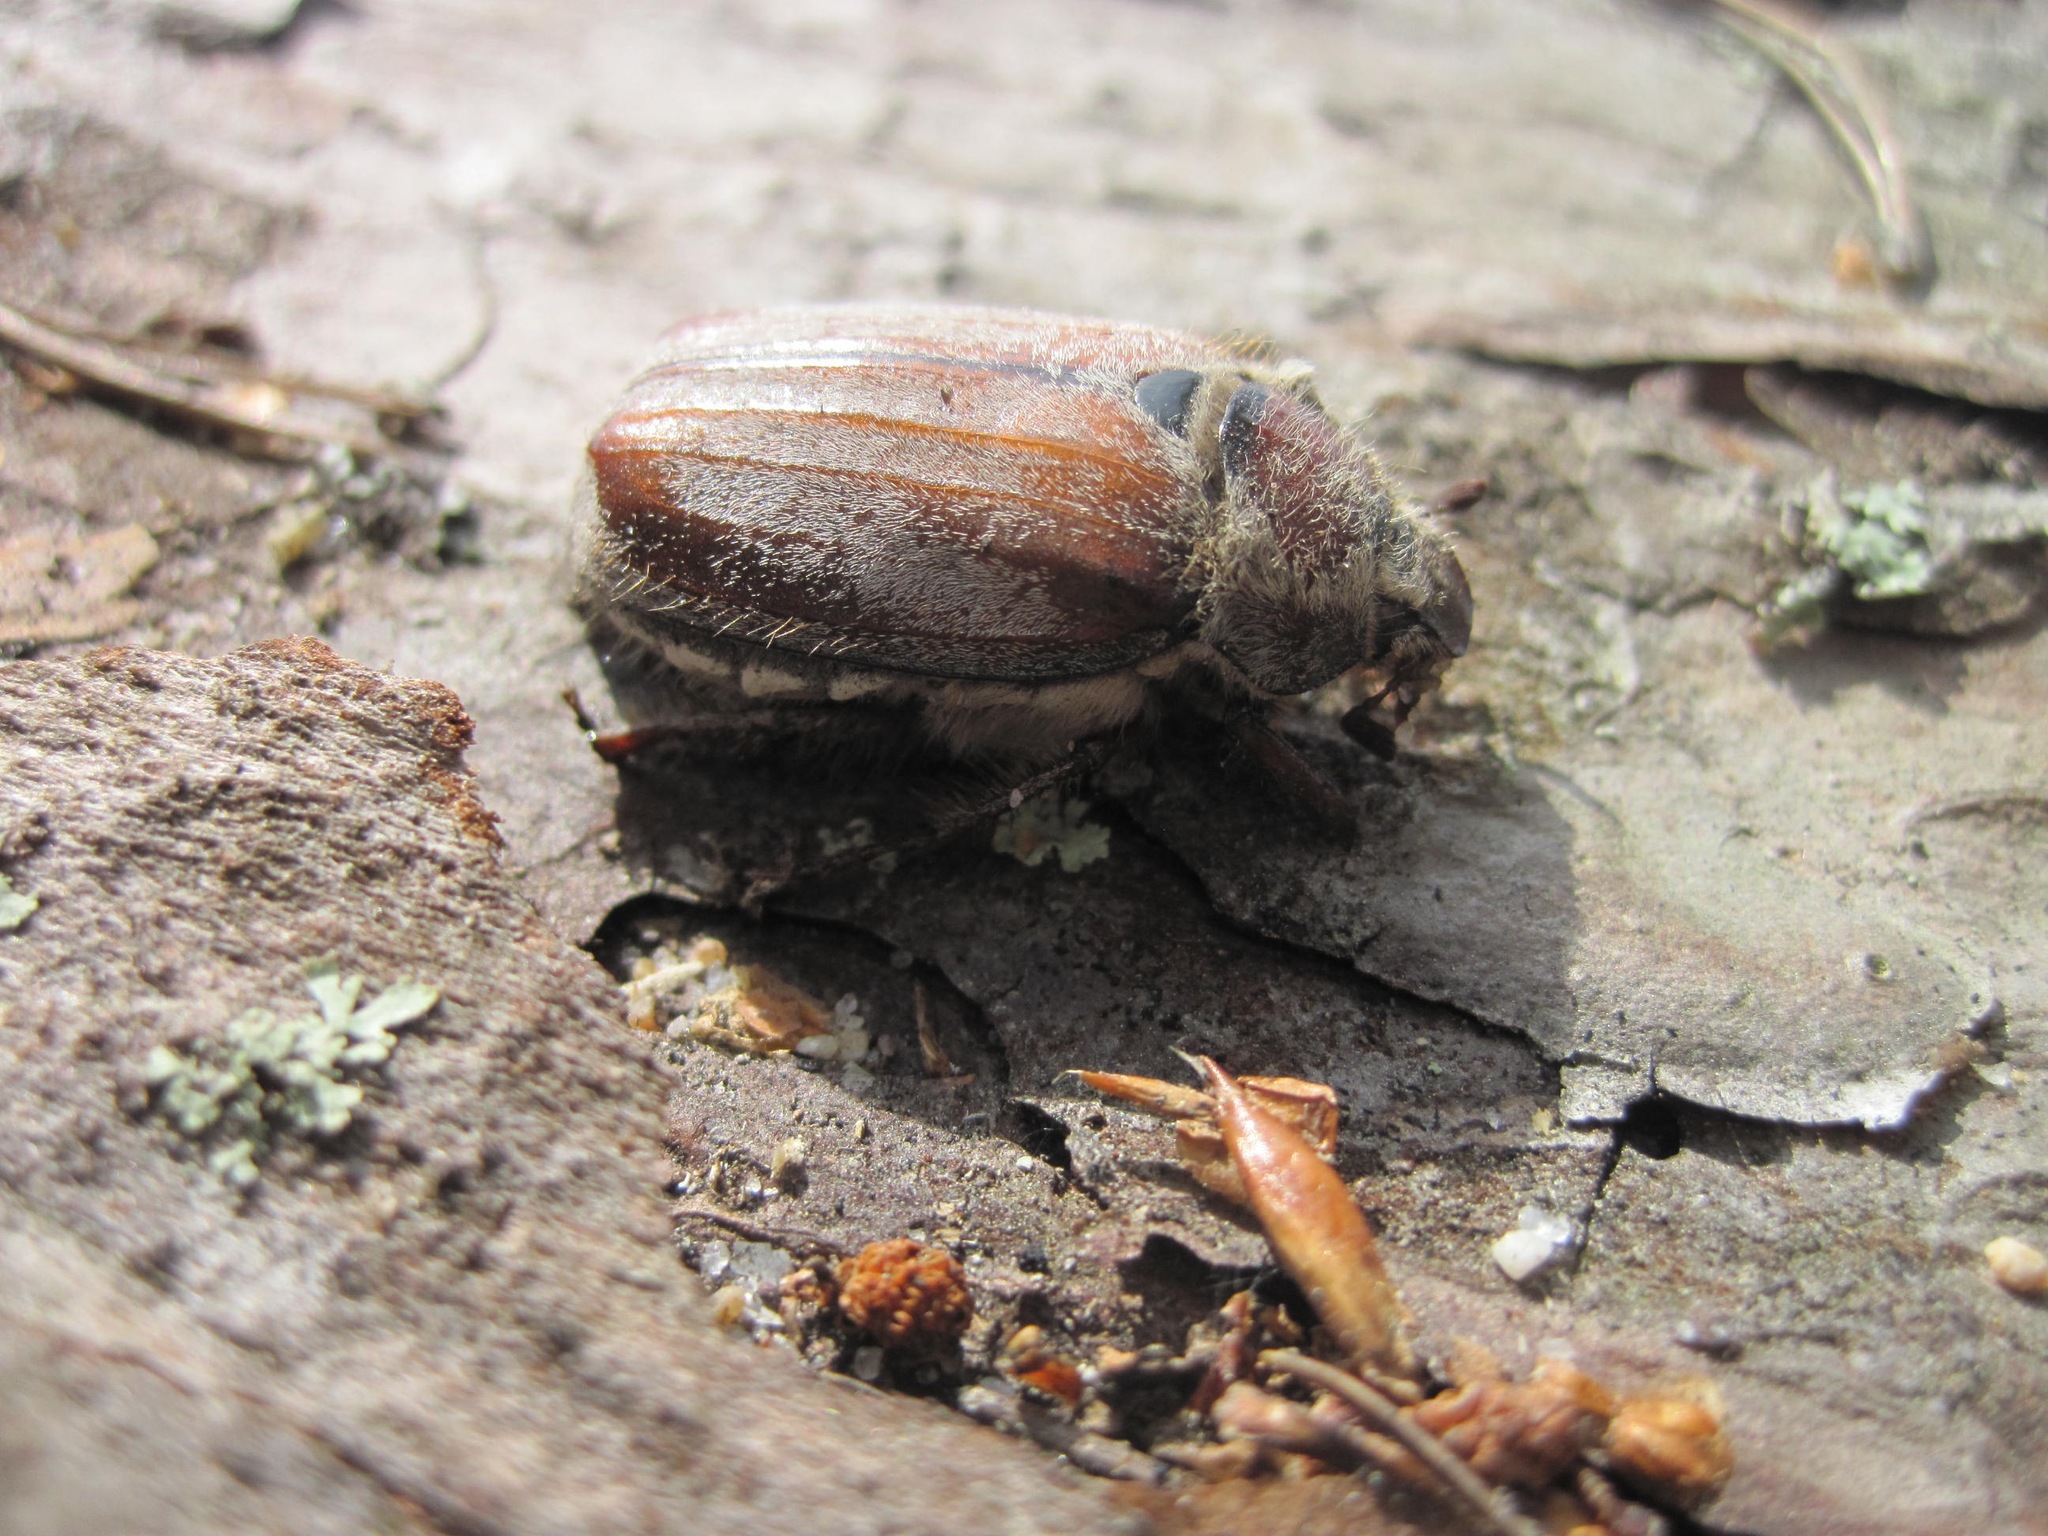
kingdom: Animalia
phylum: Arthropoda
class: Insecta
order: Coleoptera
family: Scarabaeidae
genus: Melolontha
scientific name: Melolontha hippocastani
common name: Chestnut cockchafer
